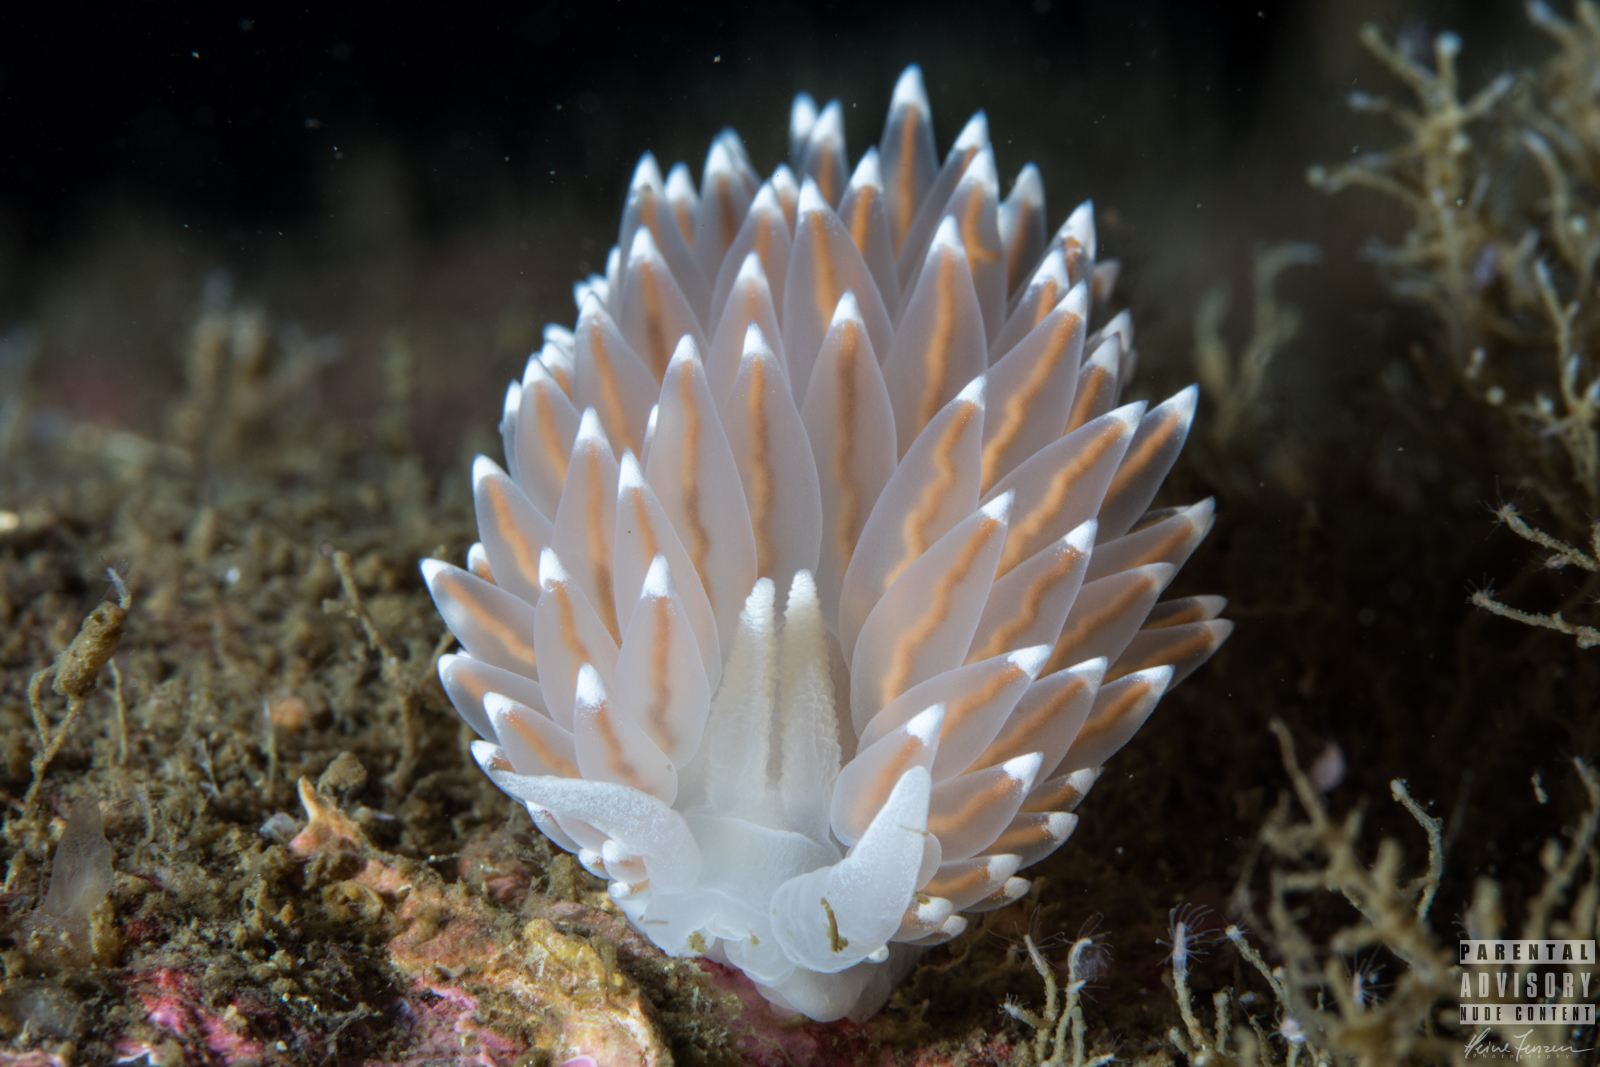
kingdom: Animalia
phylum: Mollusca
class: Gastropoda
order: Nudibranchia
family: Coryphellidae
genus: Coryphella
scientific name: Coryphella nobilis
